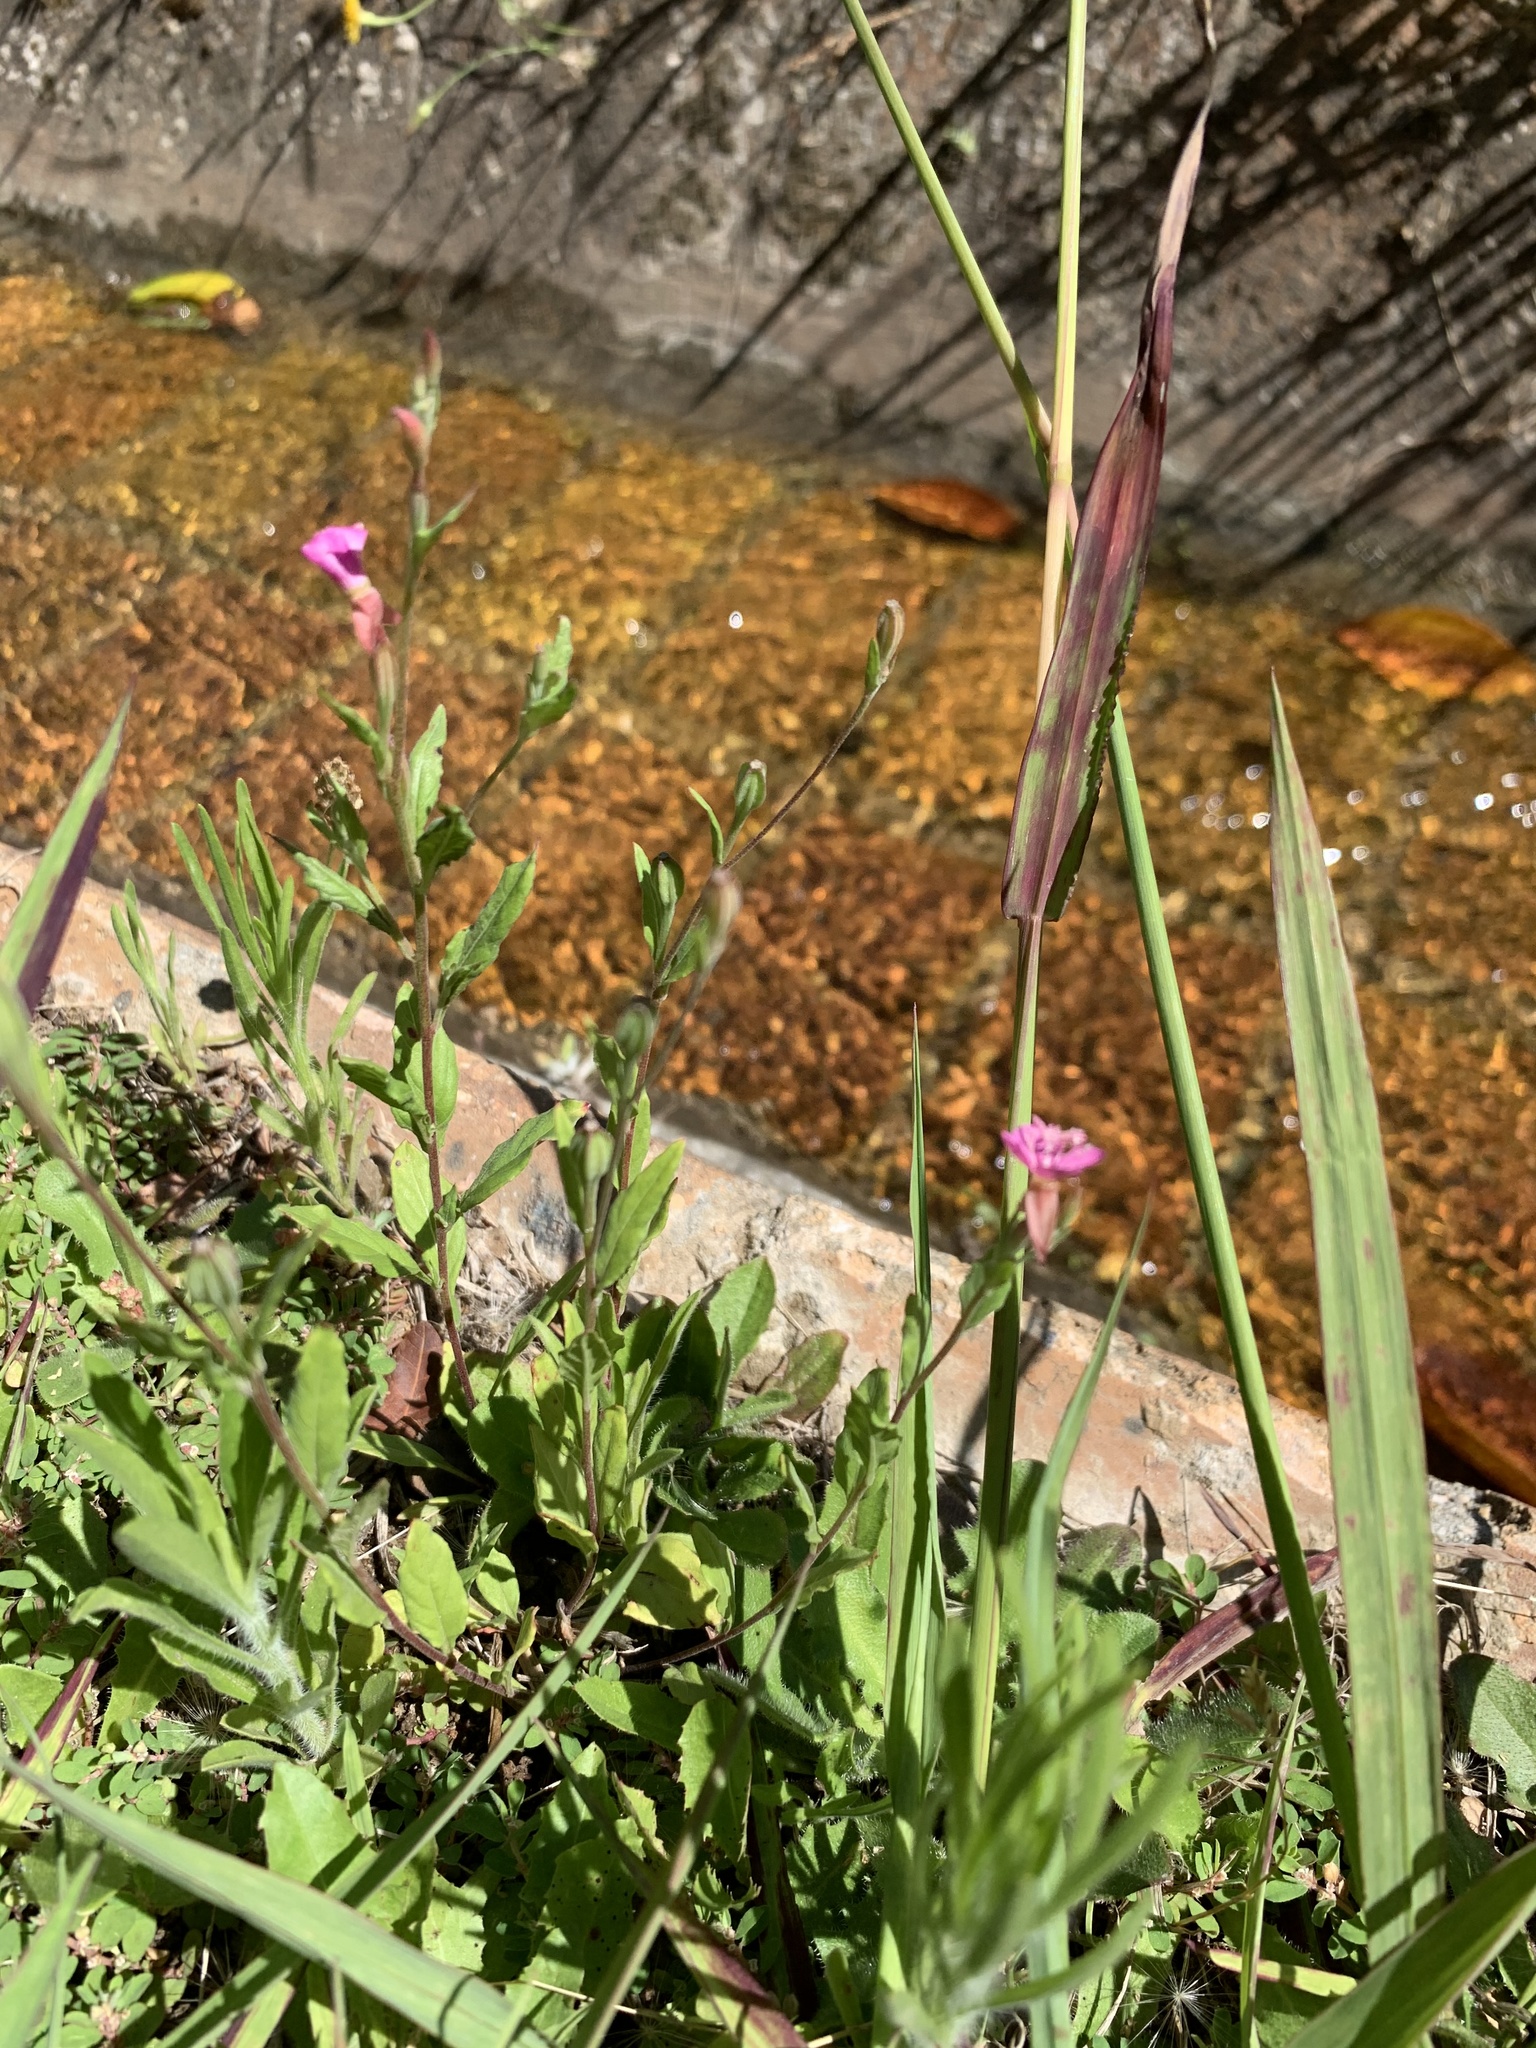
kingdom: Plantae
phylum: Tracheophyta
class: Magnoliopsida
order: Myrtales
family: Onagraceae
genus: Oenothera
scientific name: Oenothera rosea
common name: Rosy evening-primrose
